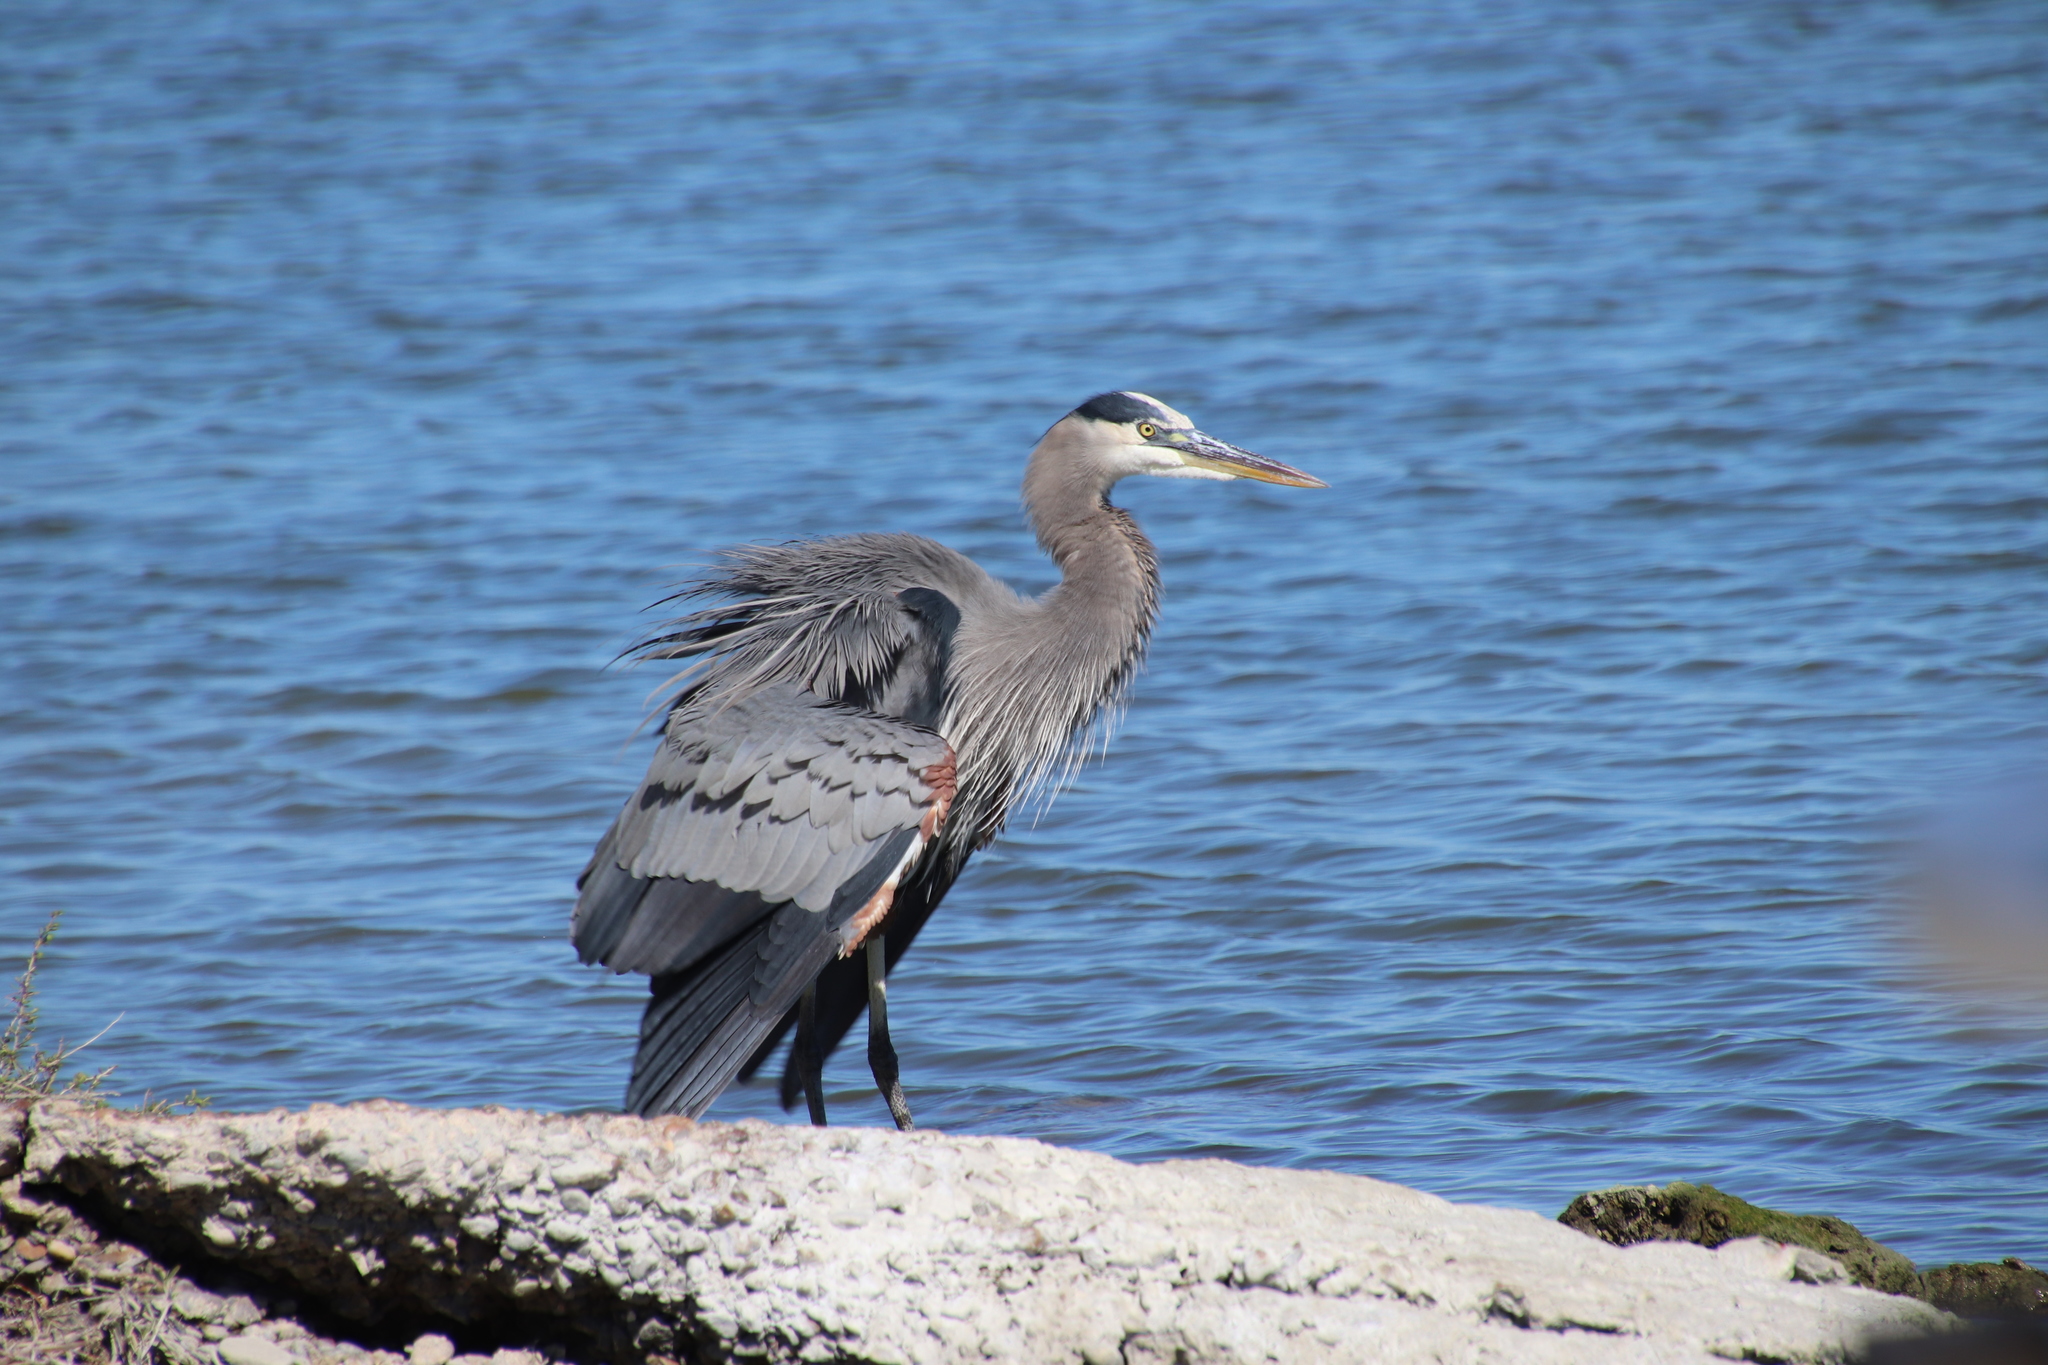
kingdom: Animalia
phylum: Chordata
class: Aves
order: Pelecaniformes
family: Ardeidae
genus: Ardea
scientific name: Ardea herodias
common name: Great blue heron
